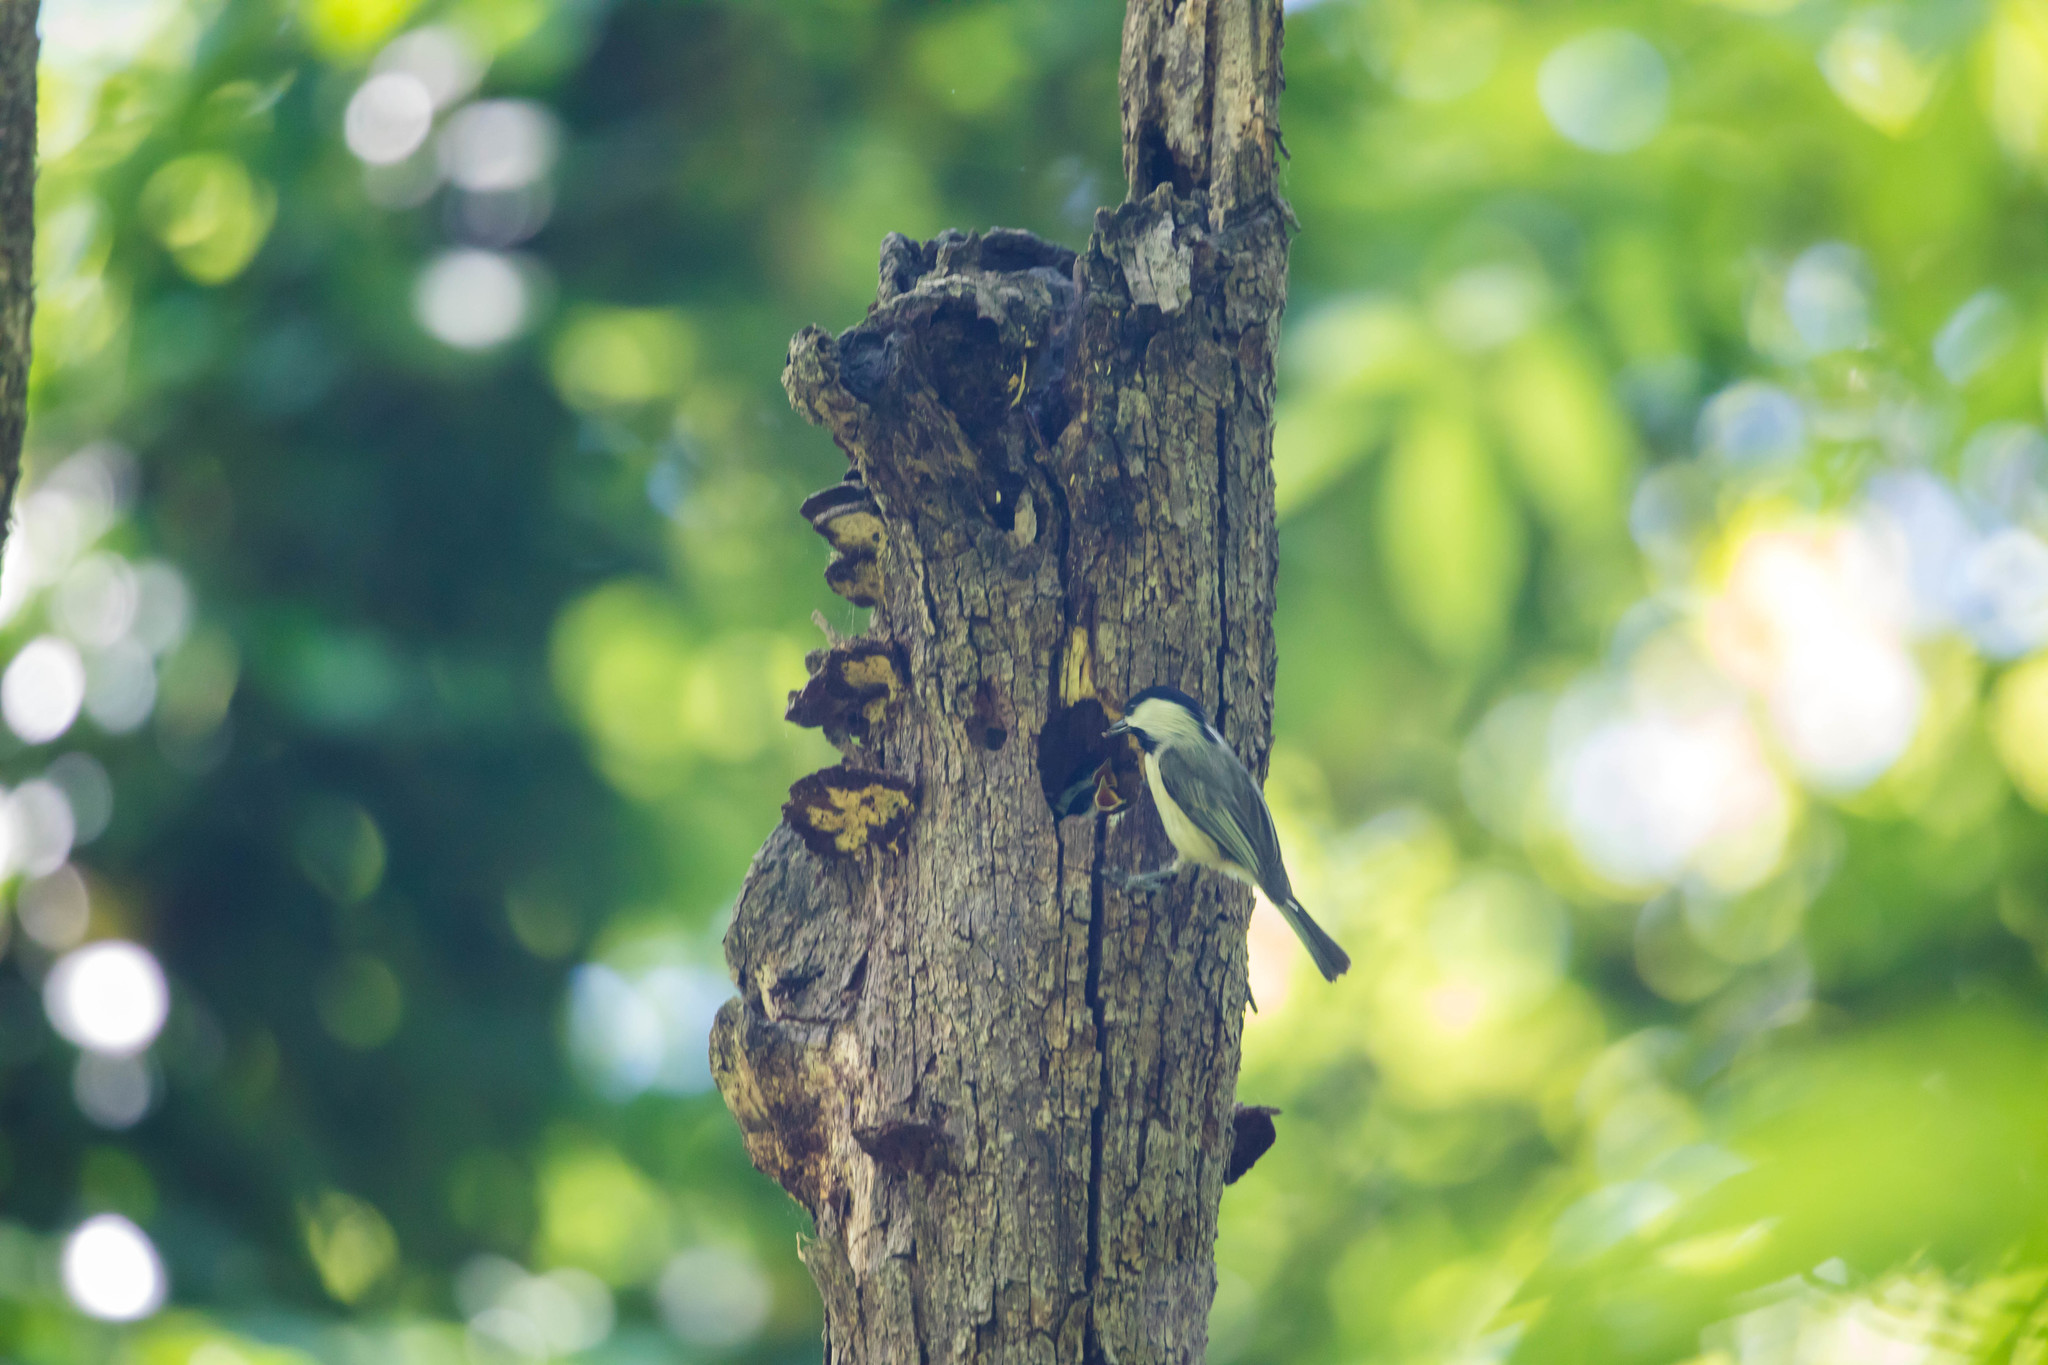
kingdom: Animalia
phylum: Chordata
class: Aves
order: Passeriformes
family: Paridae
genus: Poecile
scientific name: Poecile carolinensis
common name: Carolina chickadee
